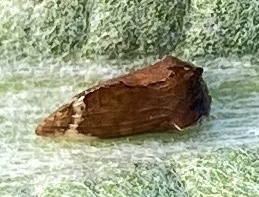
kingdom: Animalia
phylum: Arthropoda
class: Insecta
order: Hemiptera
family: Membracidae
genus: Entylia
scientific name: Entylia carinata
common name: Keeled treehopper
